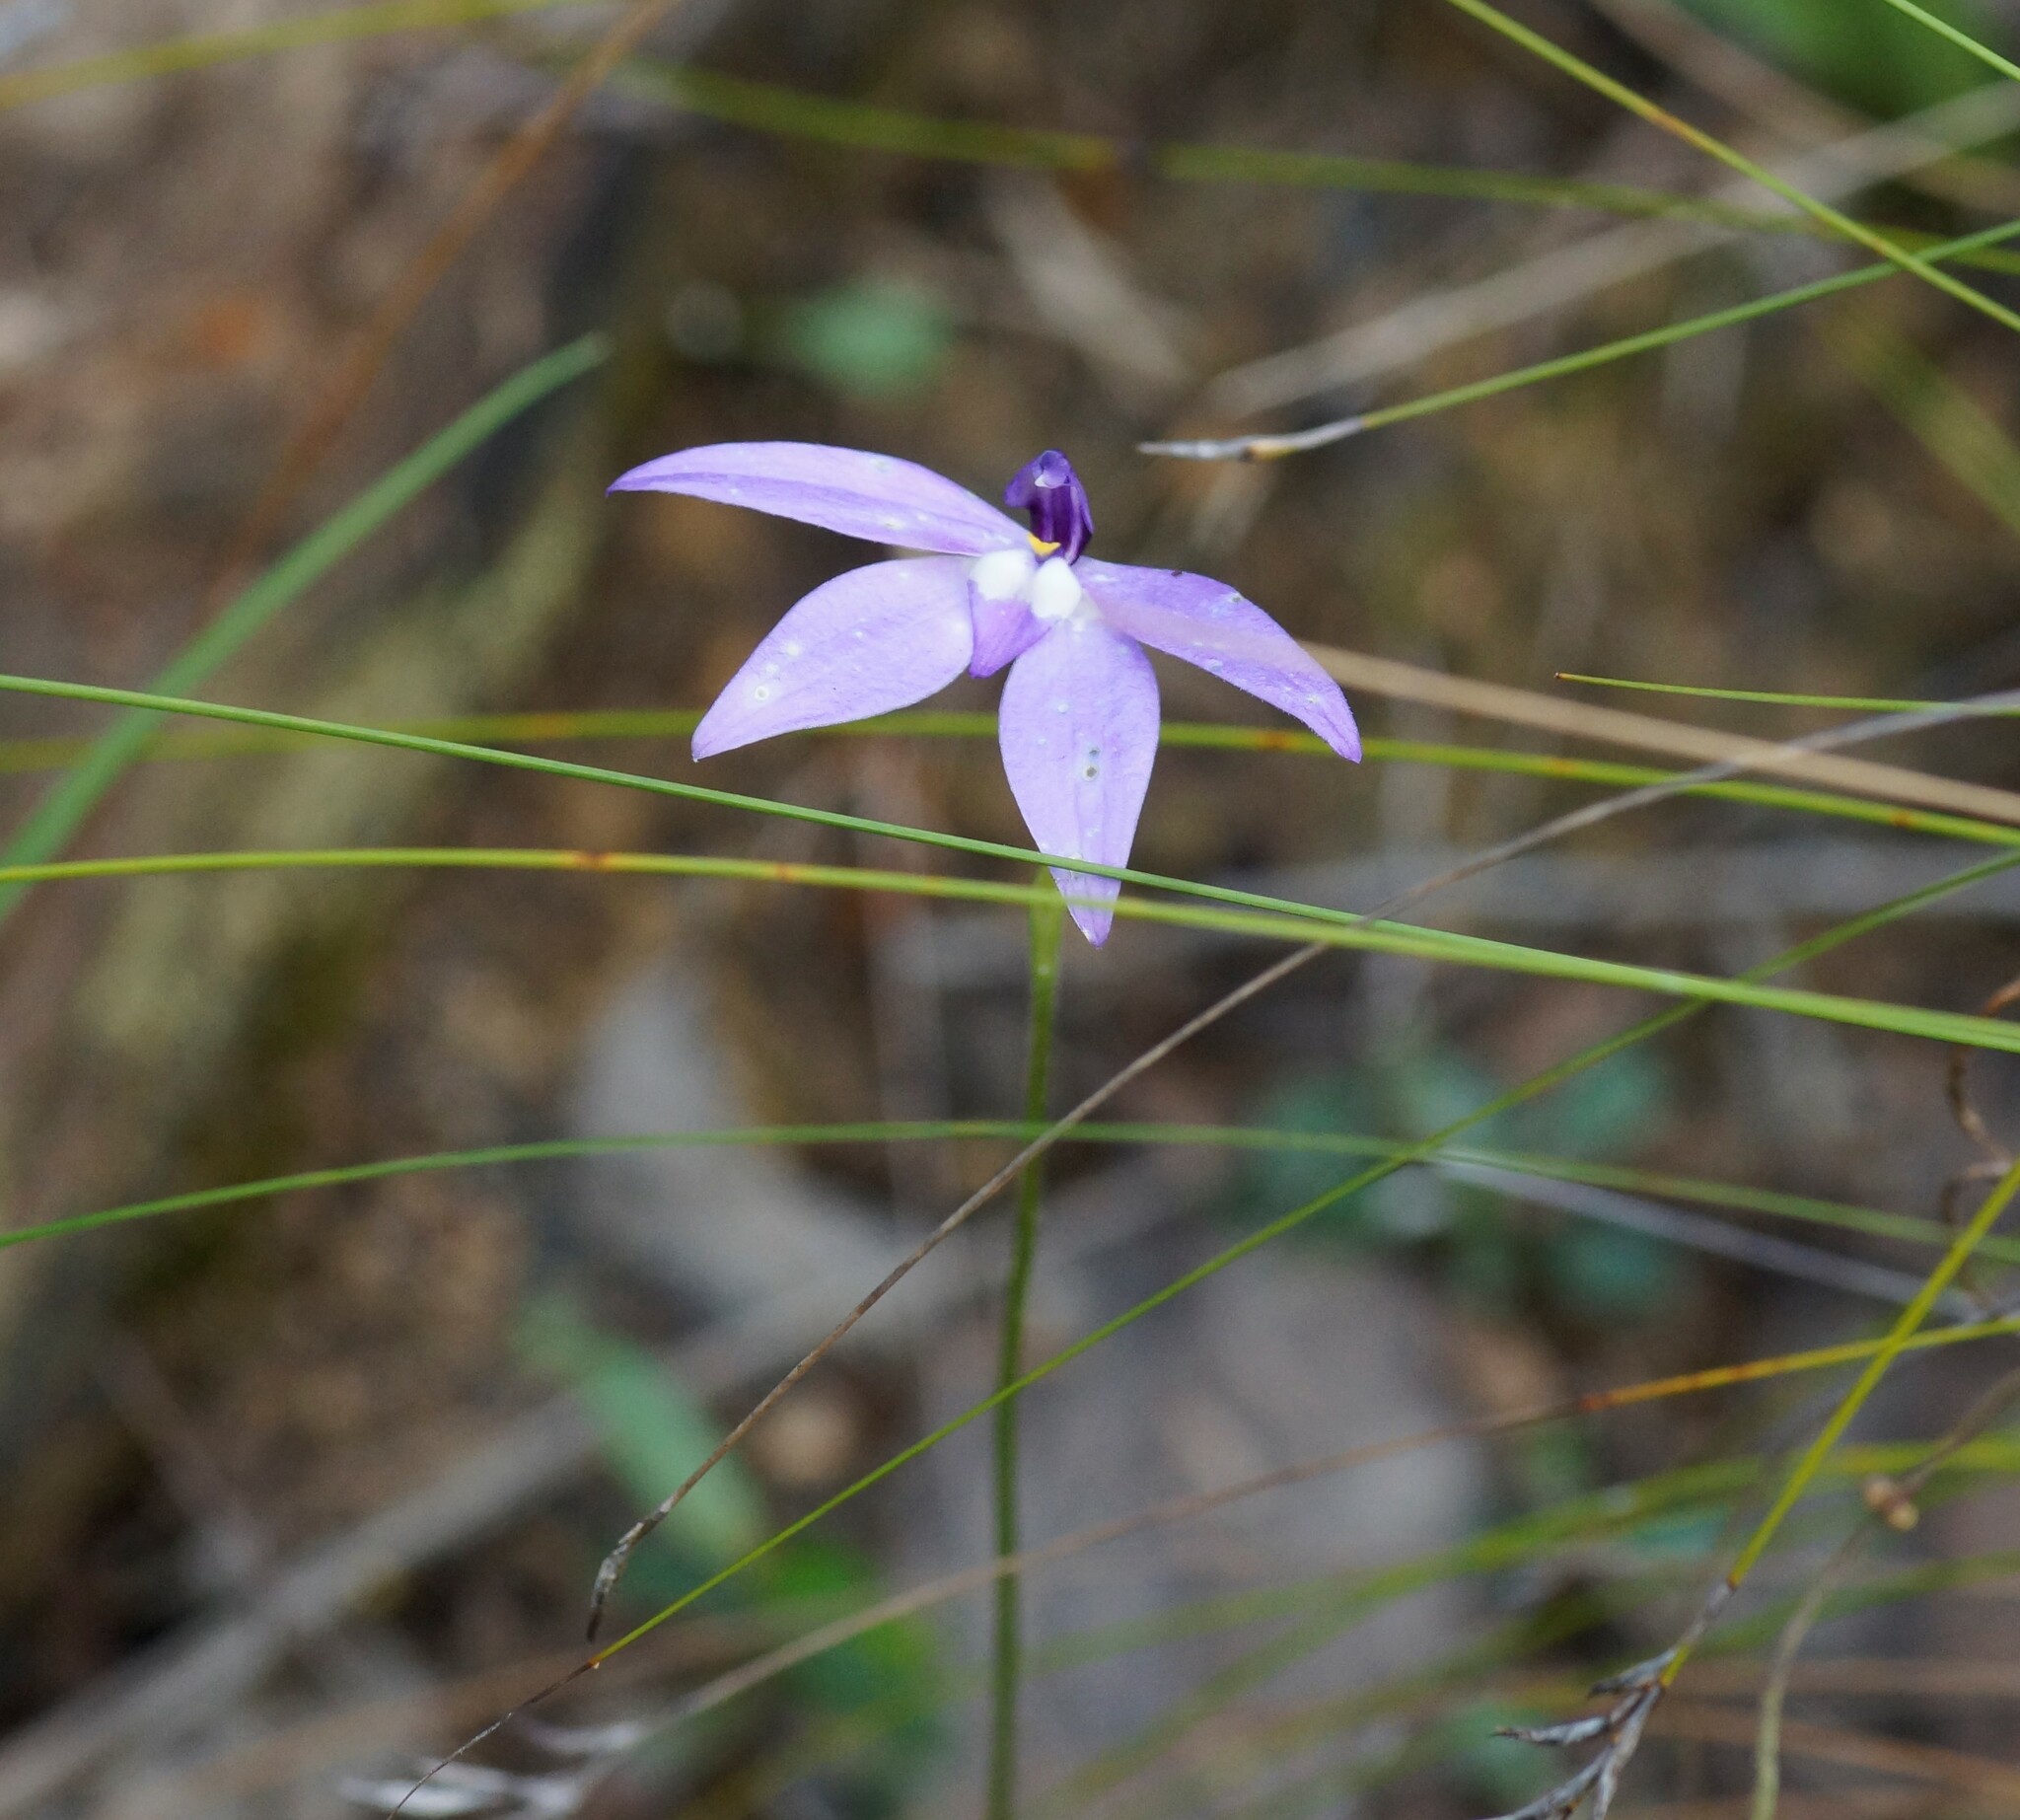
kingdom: Plantae
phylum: Tracheophyta
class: Liliopsida
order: Asparagales
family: Orchidaceae
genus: Caladenia
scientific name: Caladenia major
